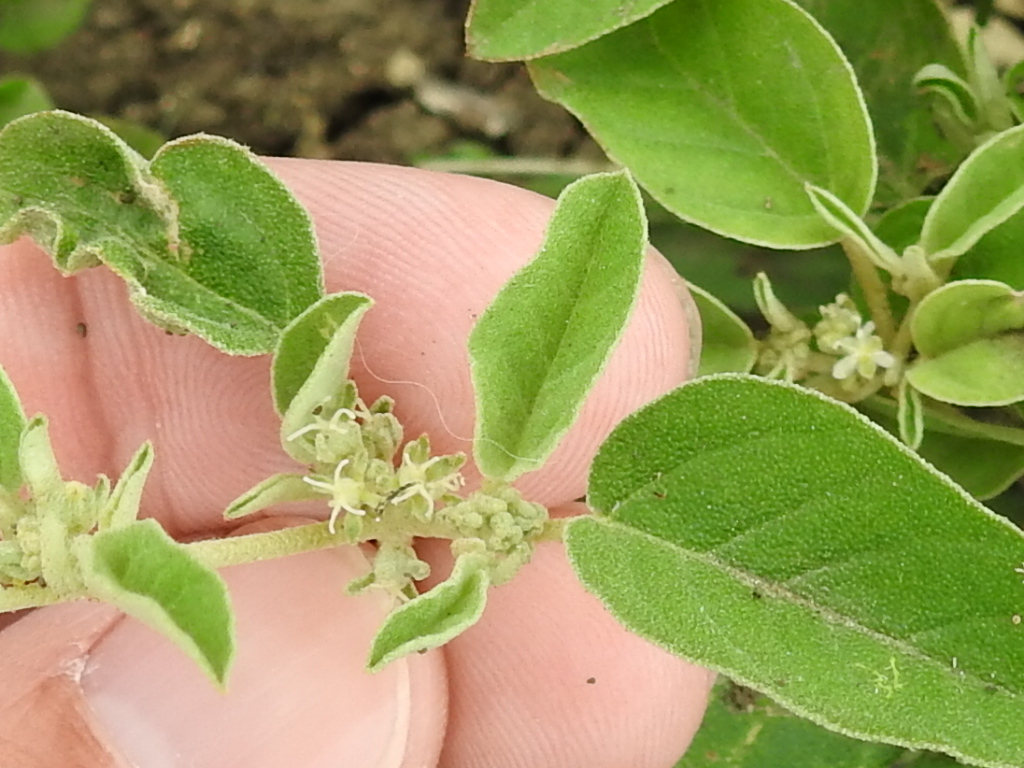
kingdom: Plantae
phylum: Tracheophyta
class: Magnoliopsida
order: Malpighiales
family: Euphorbiaceae
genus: Croton
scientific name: Croton monanthogynus
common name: One-seed croton
